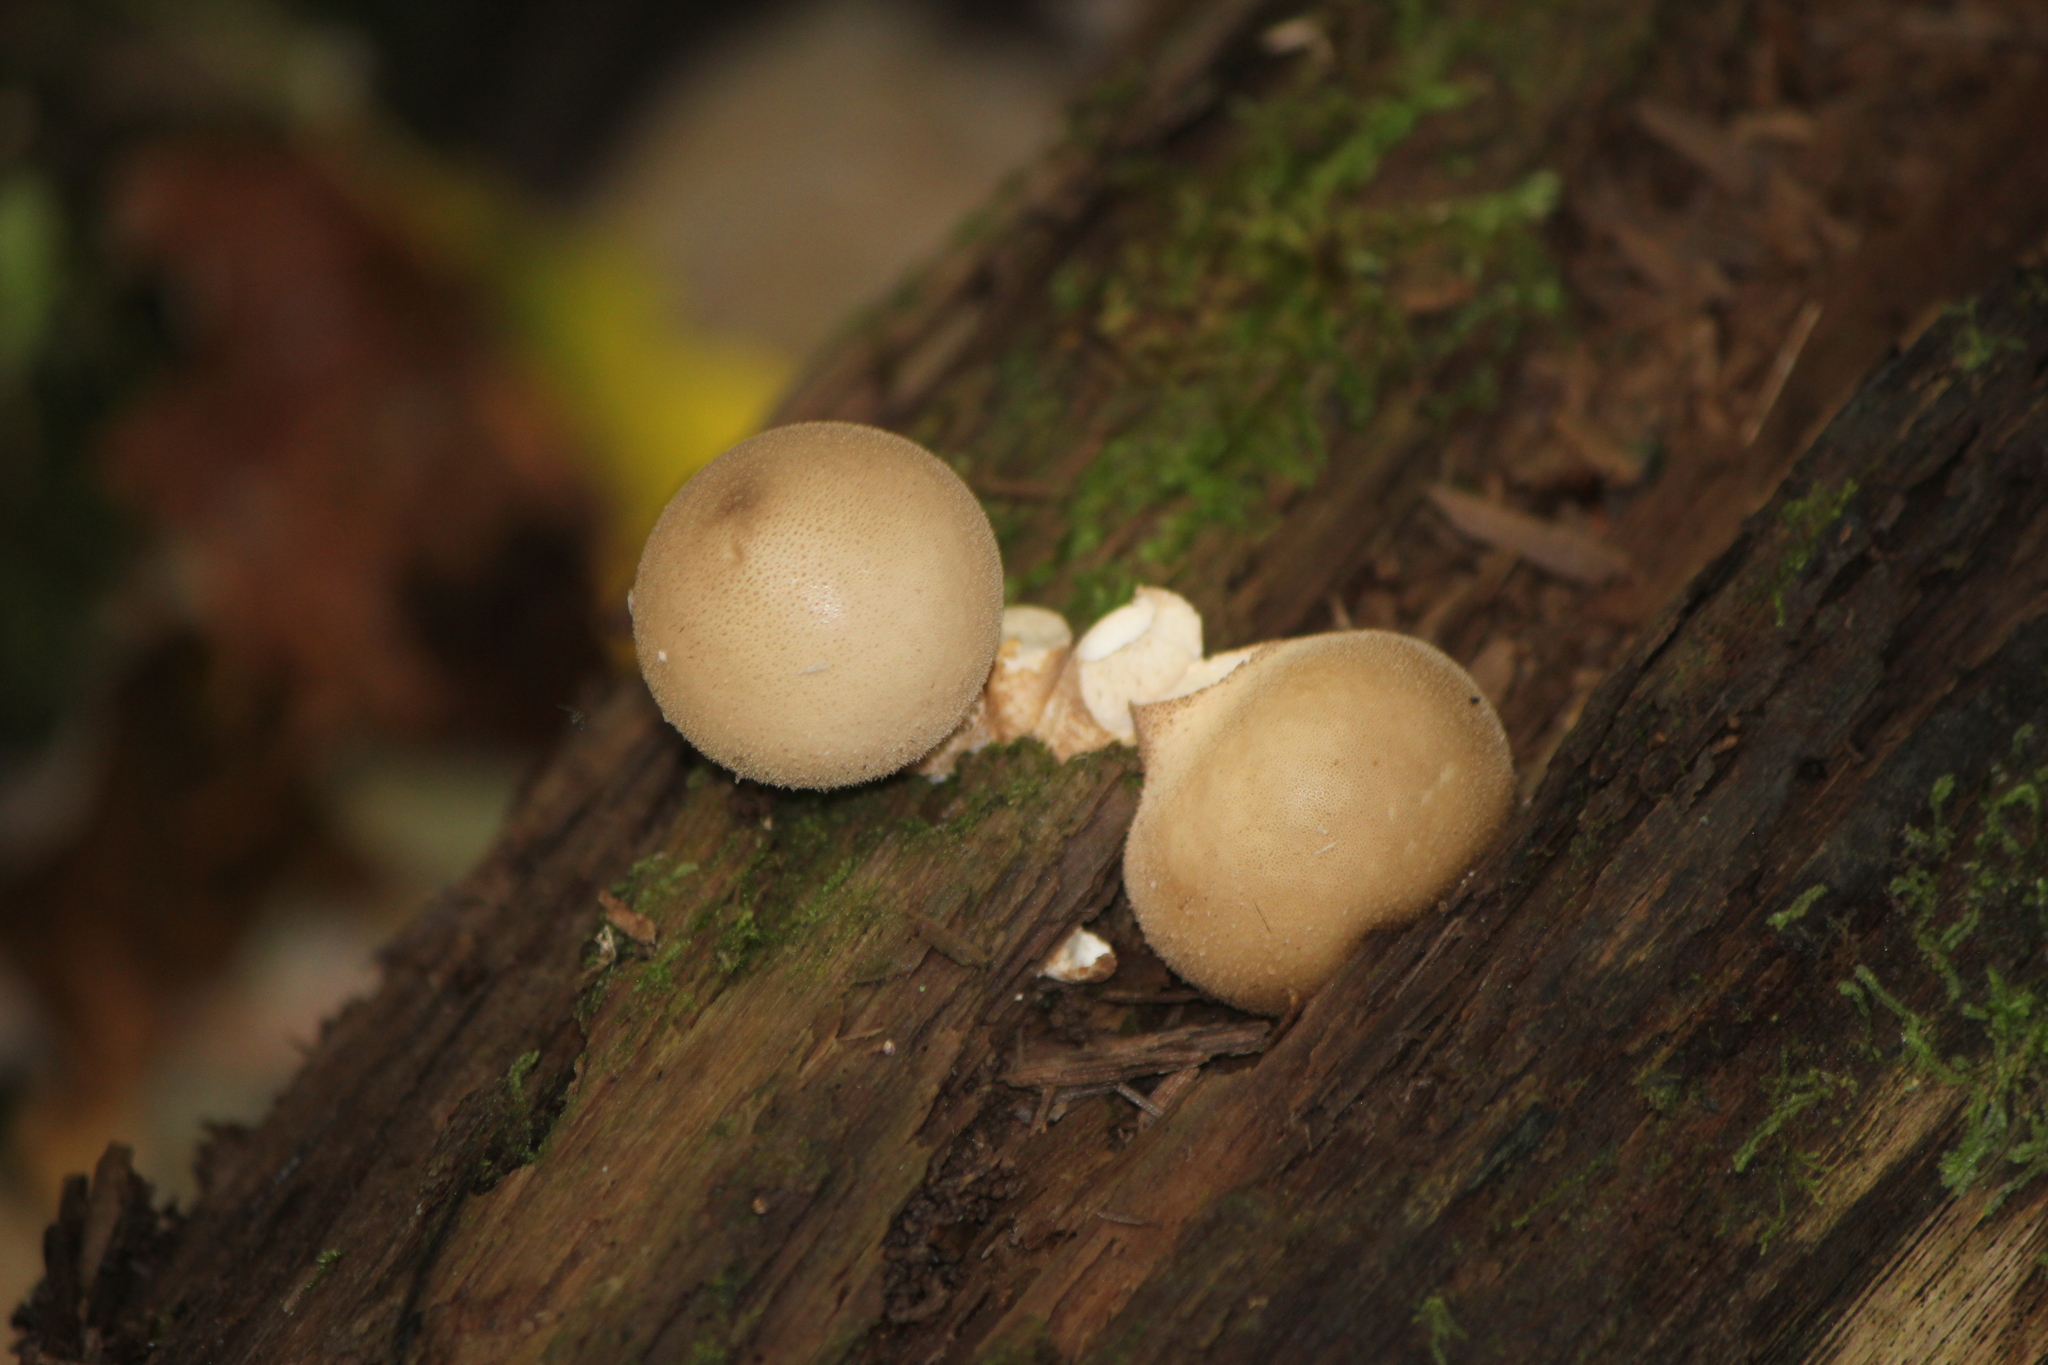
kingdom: Fungi
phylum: Basidiomycota
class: Agaricomycetes
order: Agaricales
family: Lycoperdaceae
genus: Apioperdon
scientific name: Apioperdon pyriforme
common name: Pear-shaped puffball
